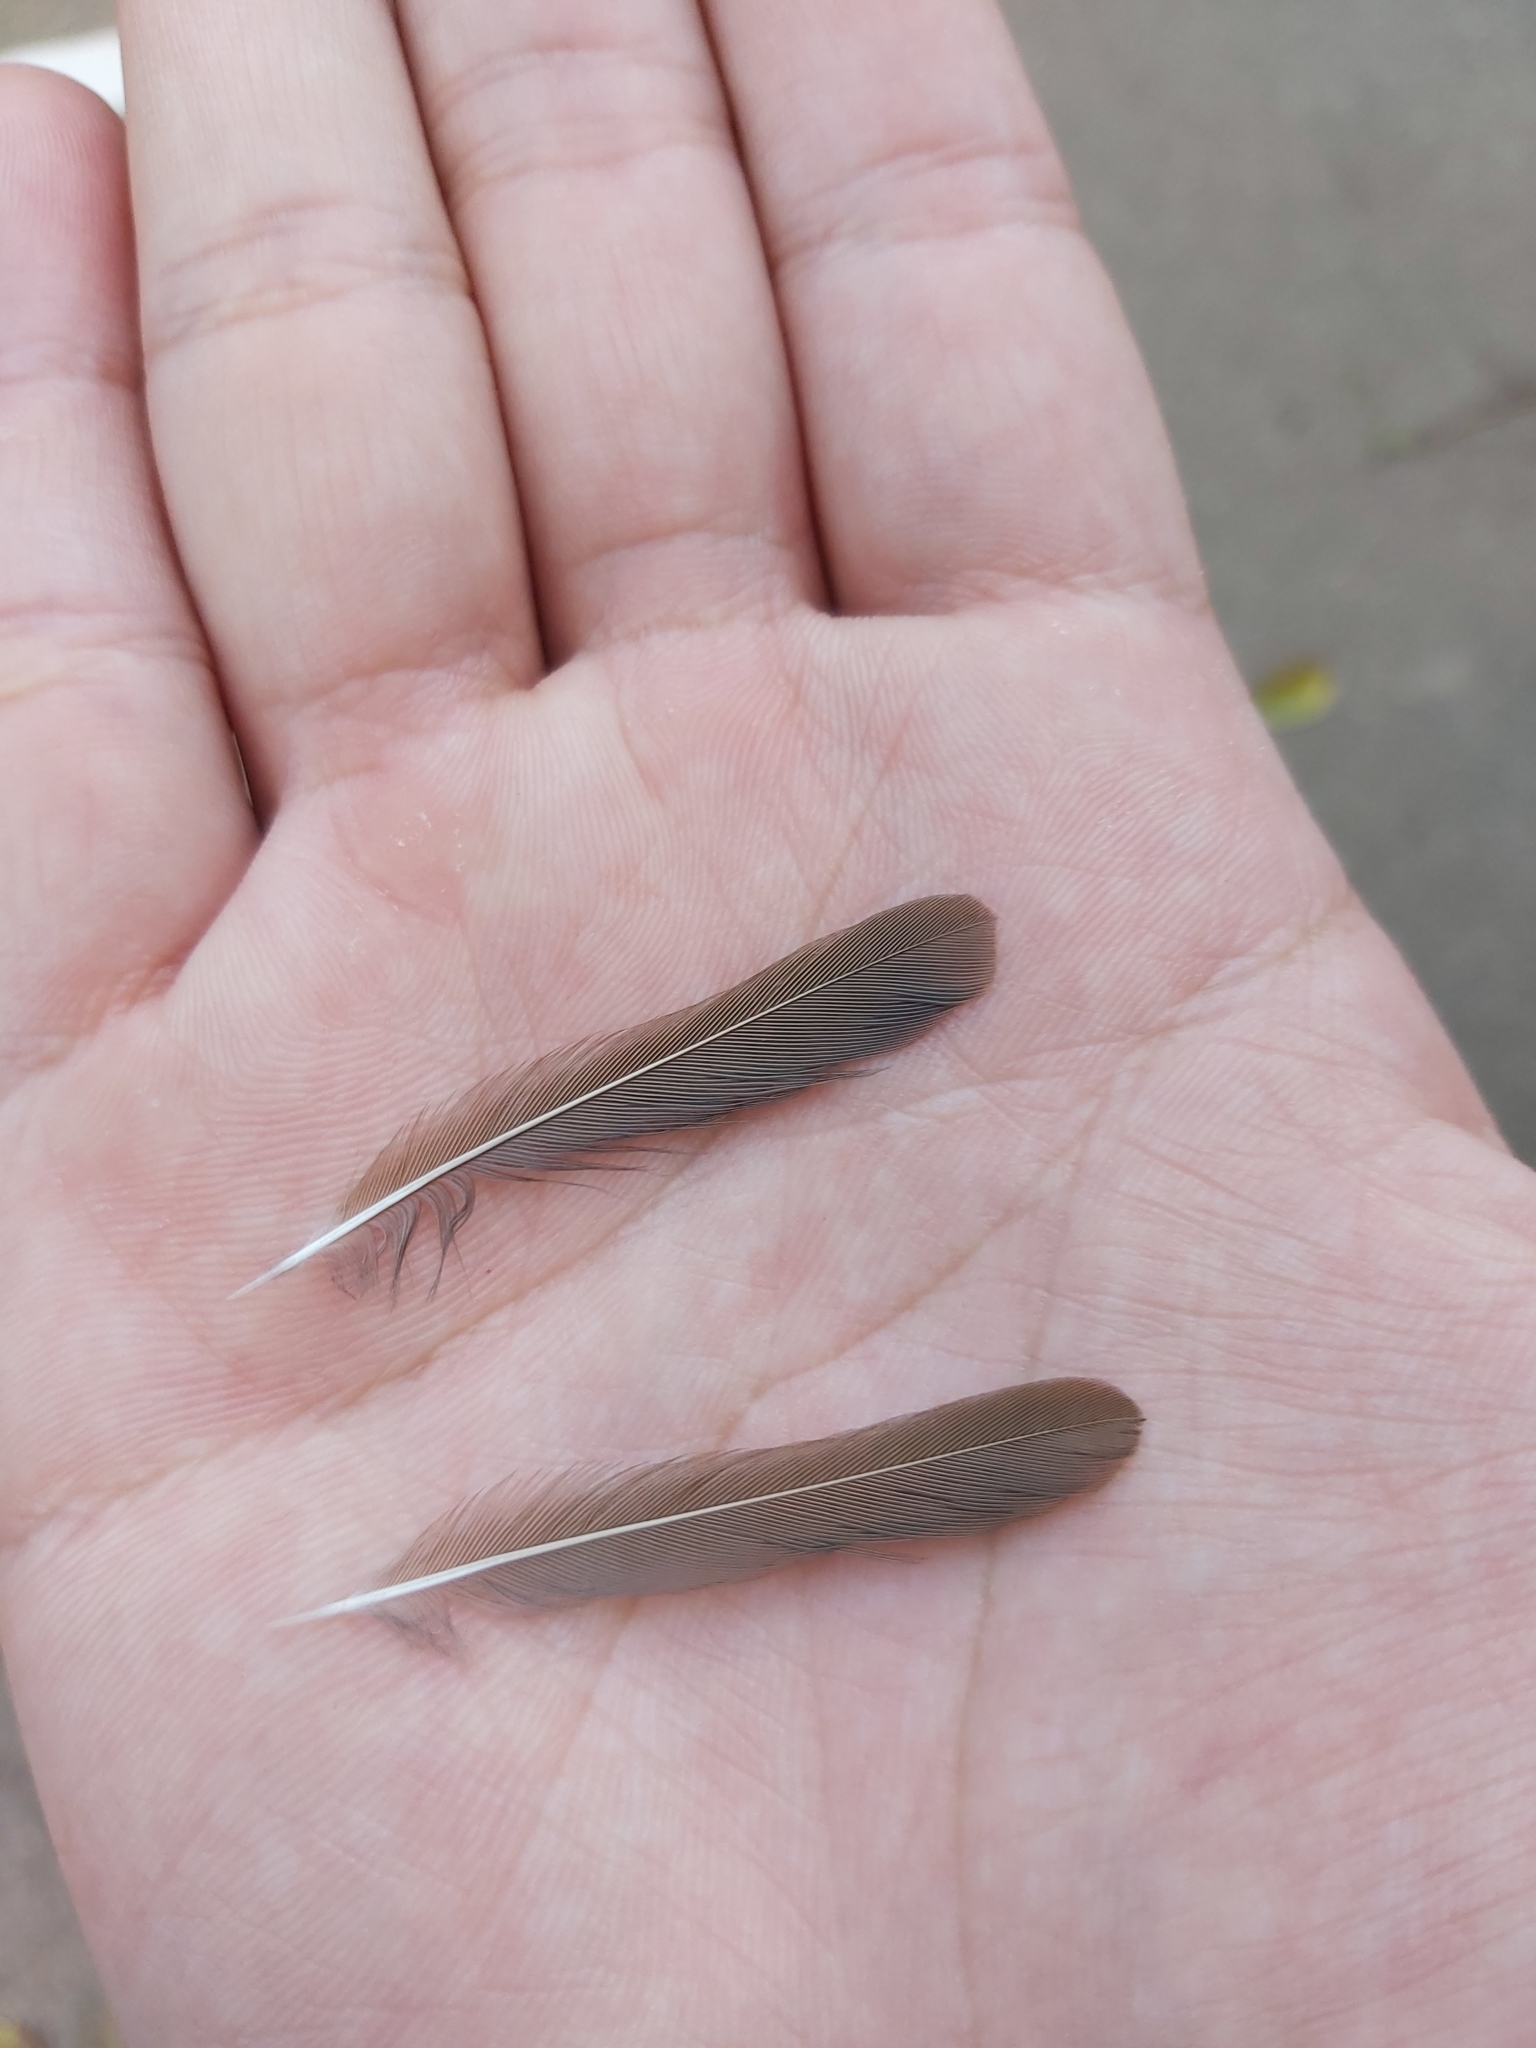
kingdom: Animalia
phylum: Chordata
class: Aves
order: Passeriformes
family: Meliphagidae
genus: Manorina
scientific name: Manorina melanophrys
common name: Bell miner
